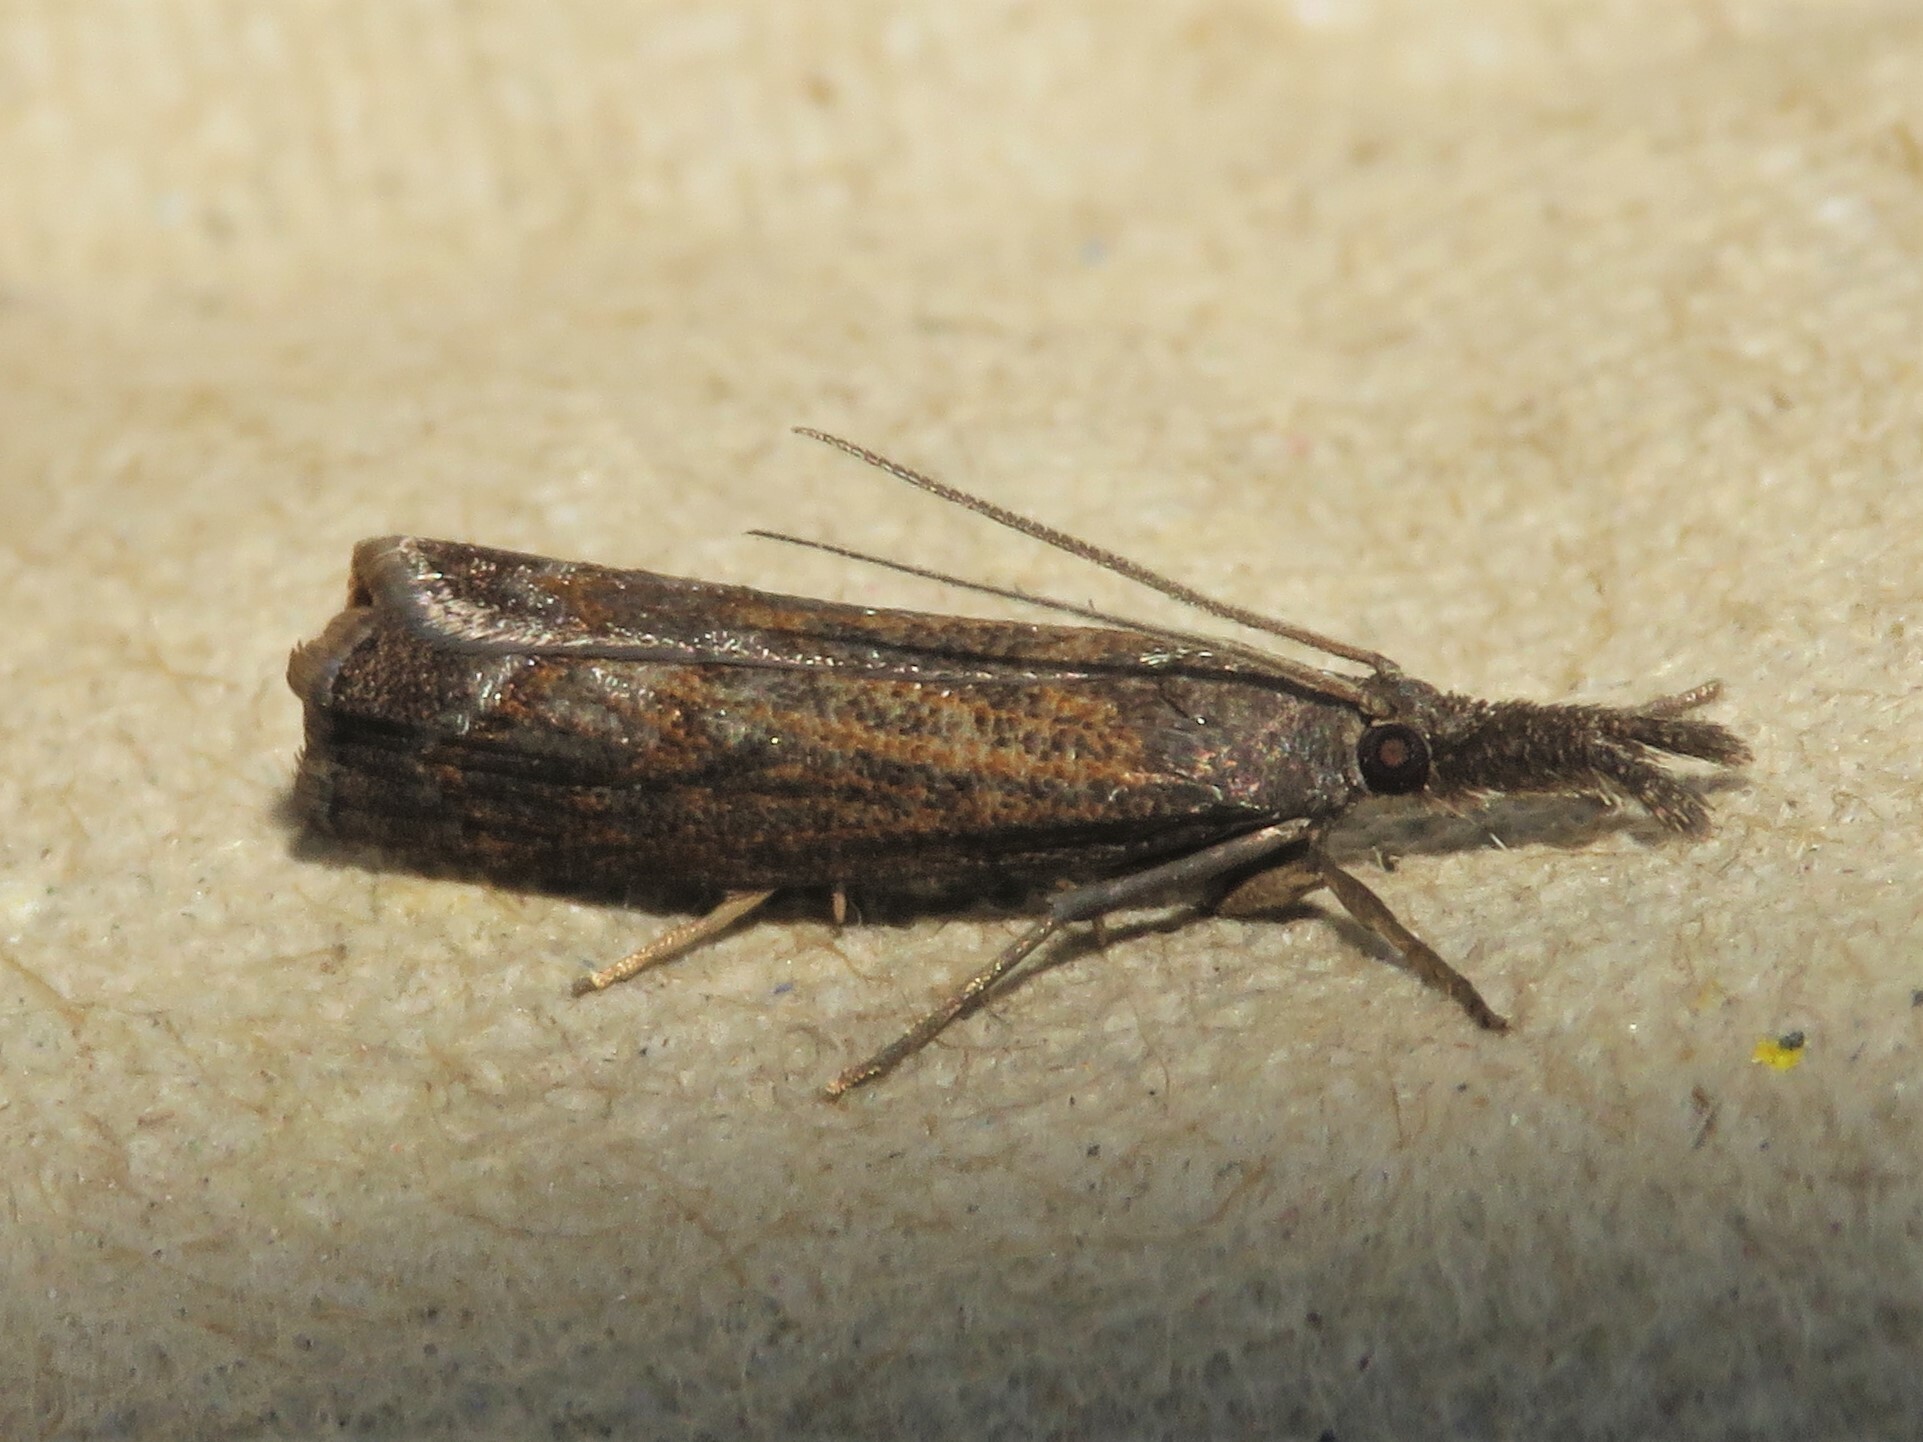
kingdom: Animalia
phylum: Arthropoda
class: Insecta
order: Lepidoptera
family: Crambidae
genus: Neodactria
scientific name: Neodactria luteolellus
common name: Mottled grass-veneer
